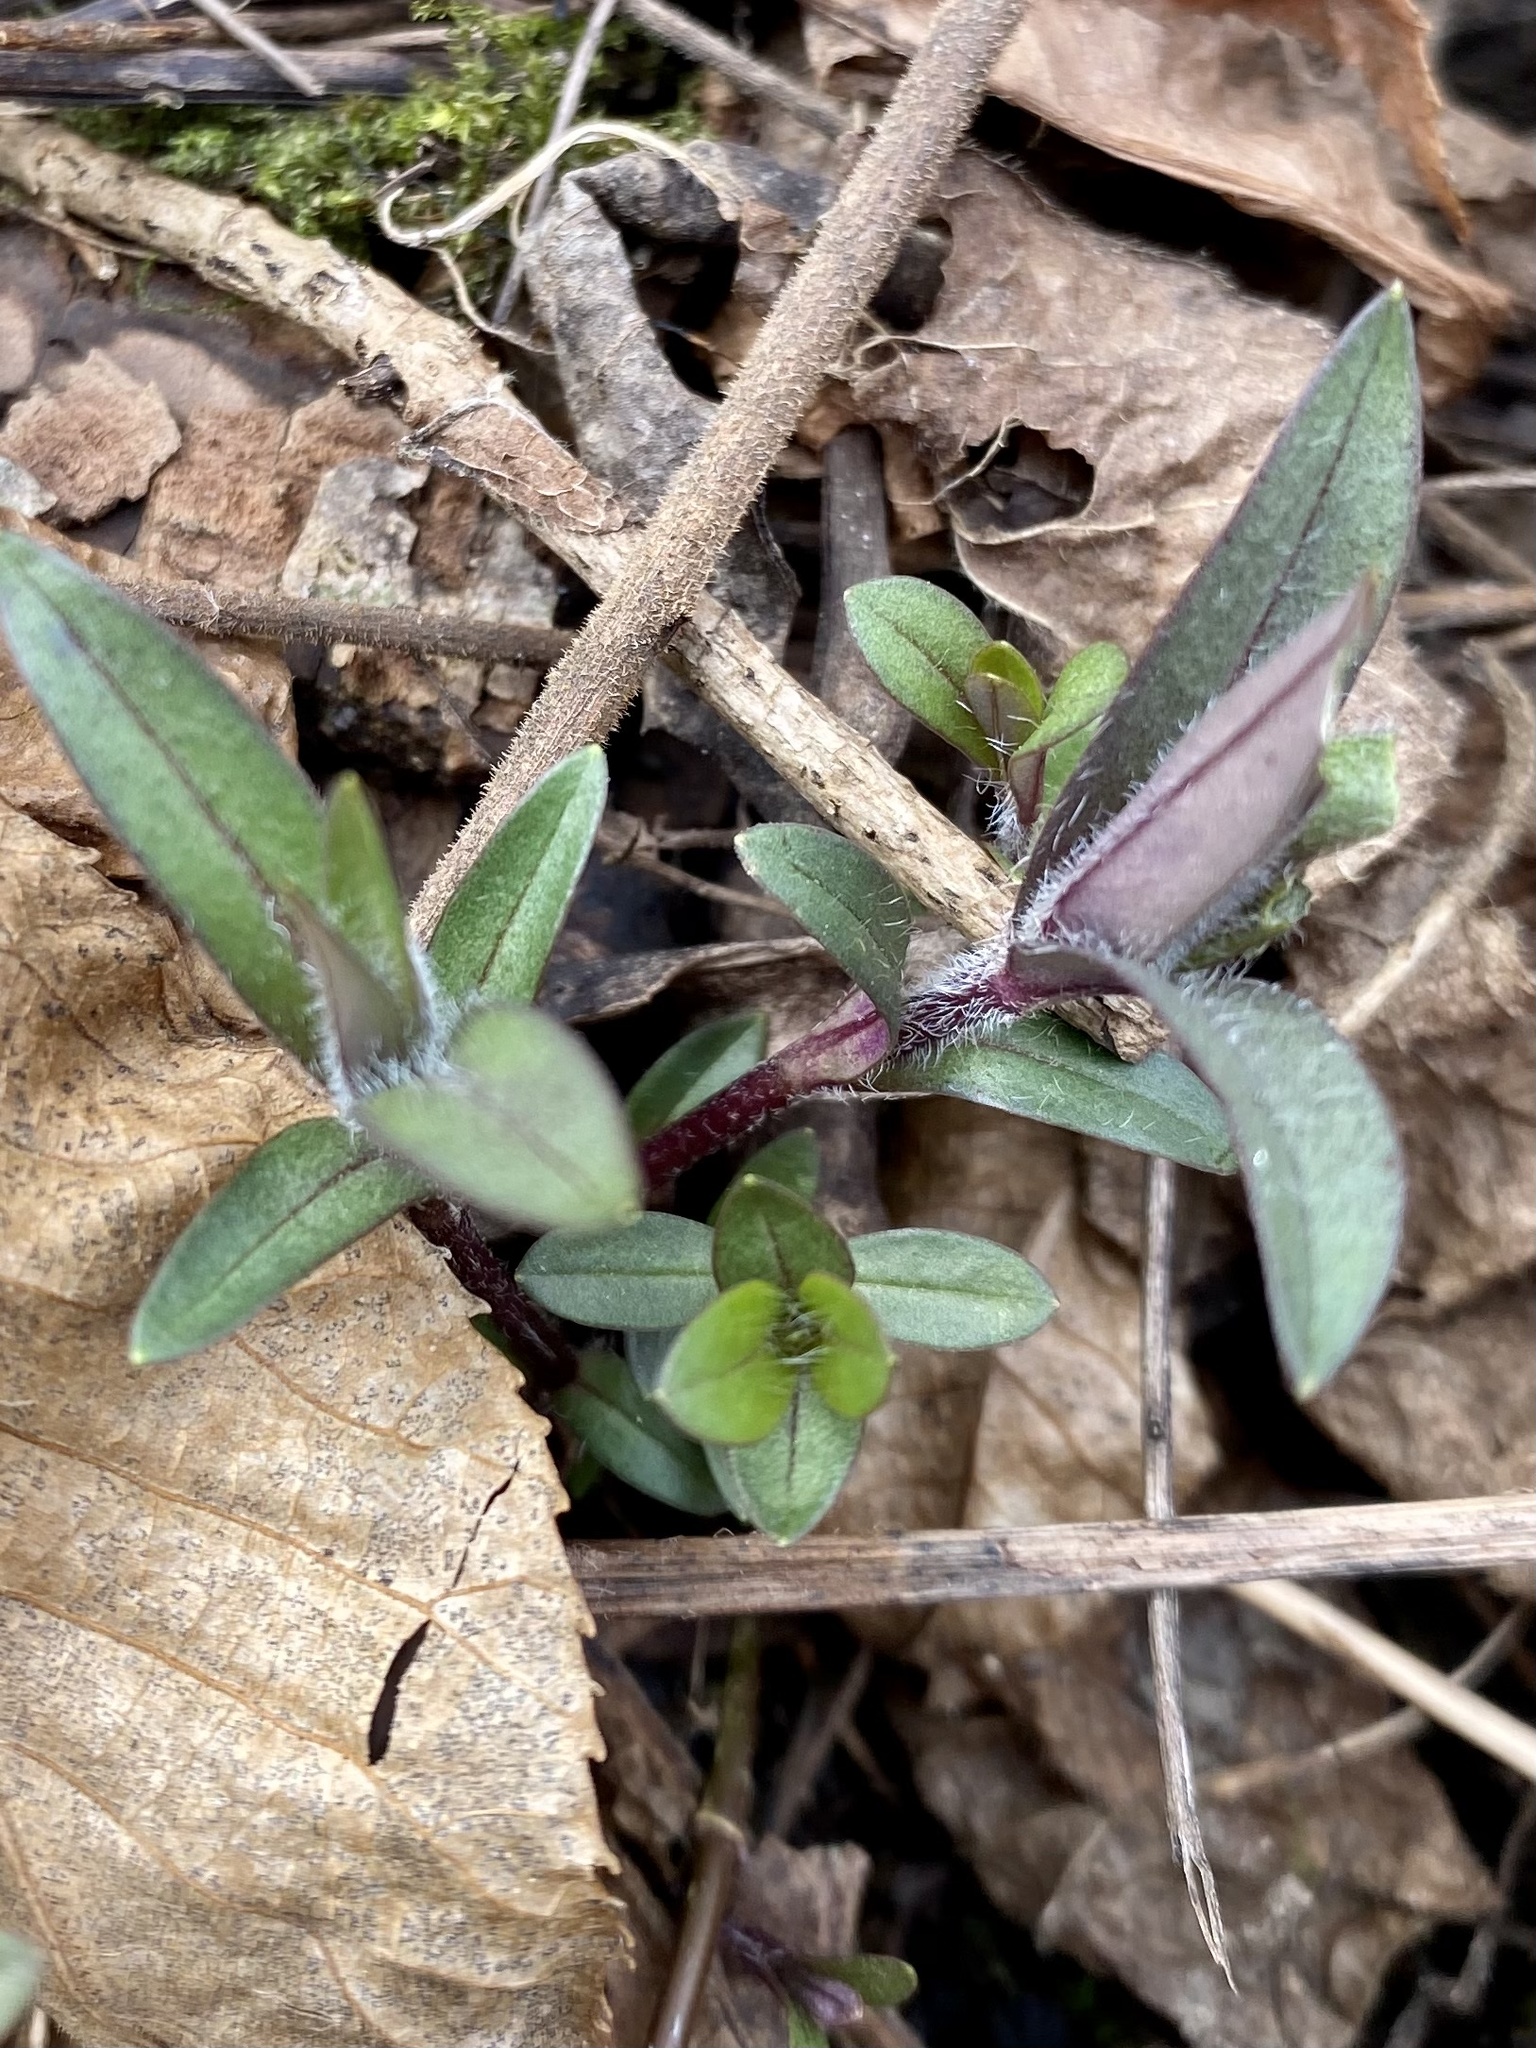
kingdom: Plantae
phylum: Tracheophyta
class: Magnoliopsida
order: Ericales
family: Polemoniaceae
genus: Phlox
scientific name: Phlox divaricata
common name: Blue phlox
